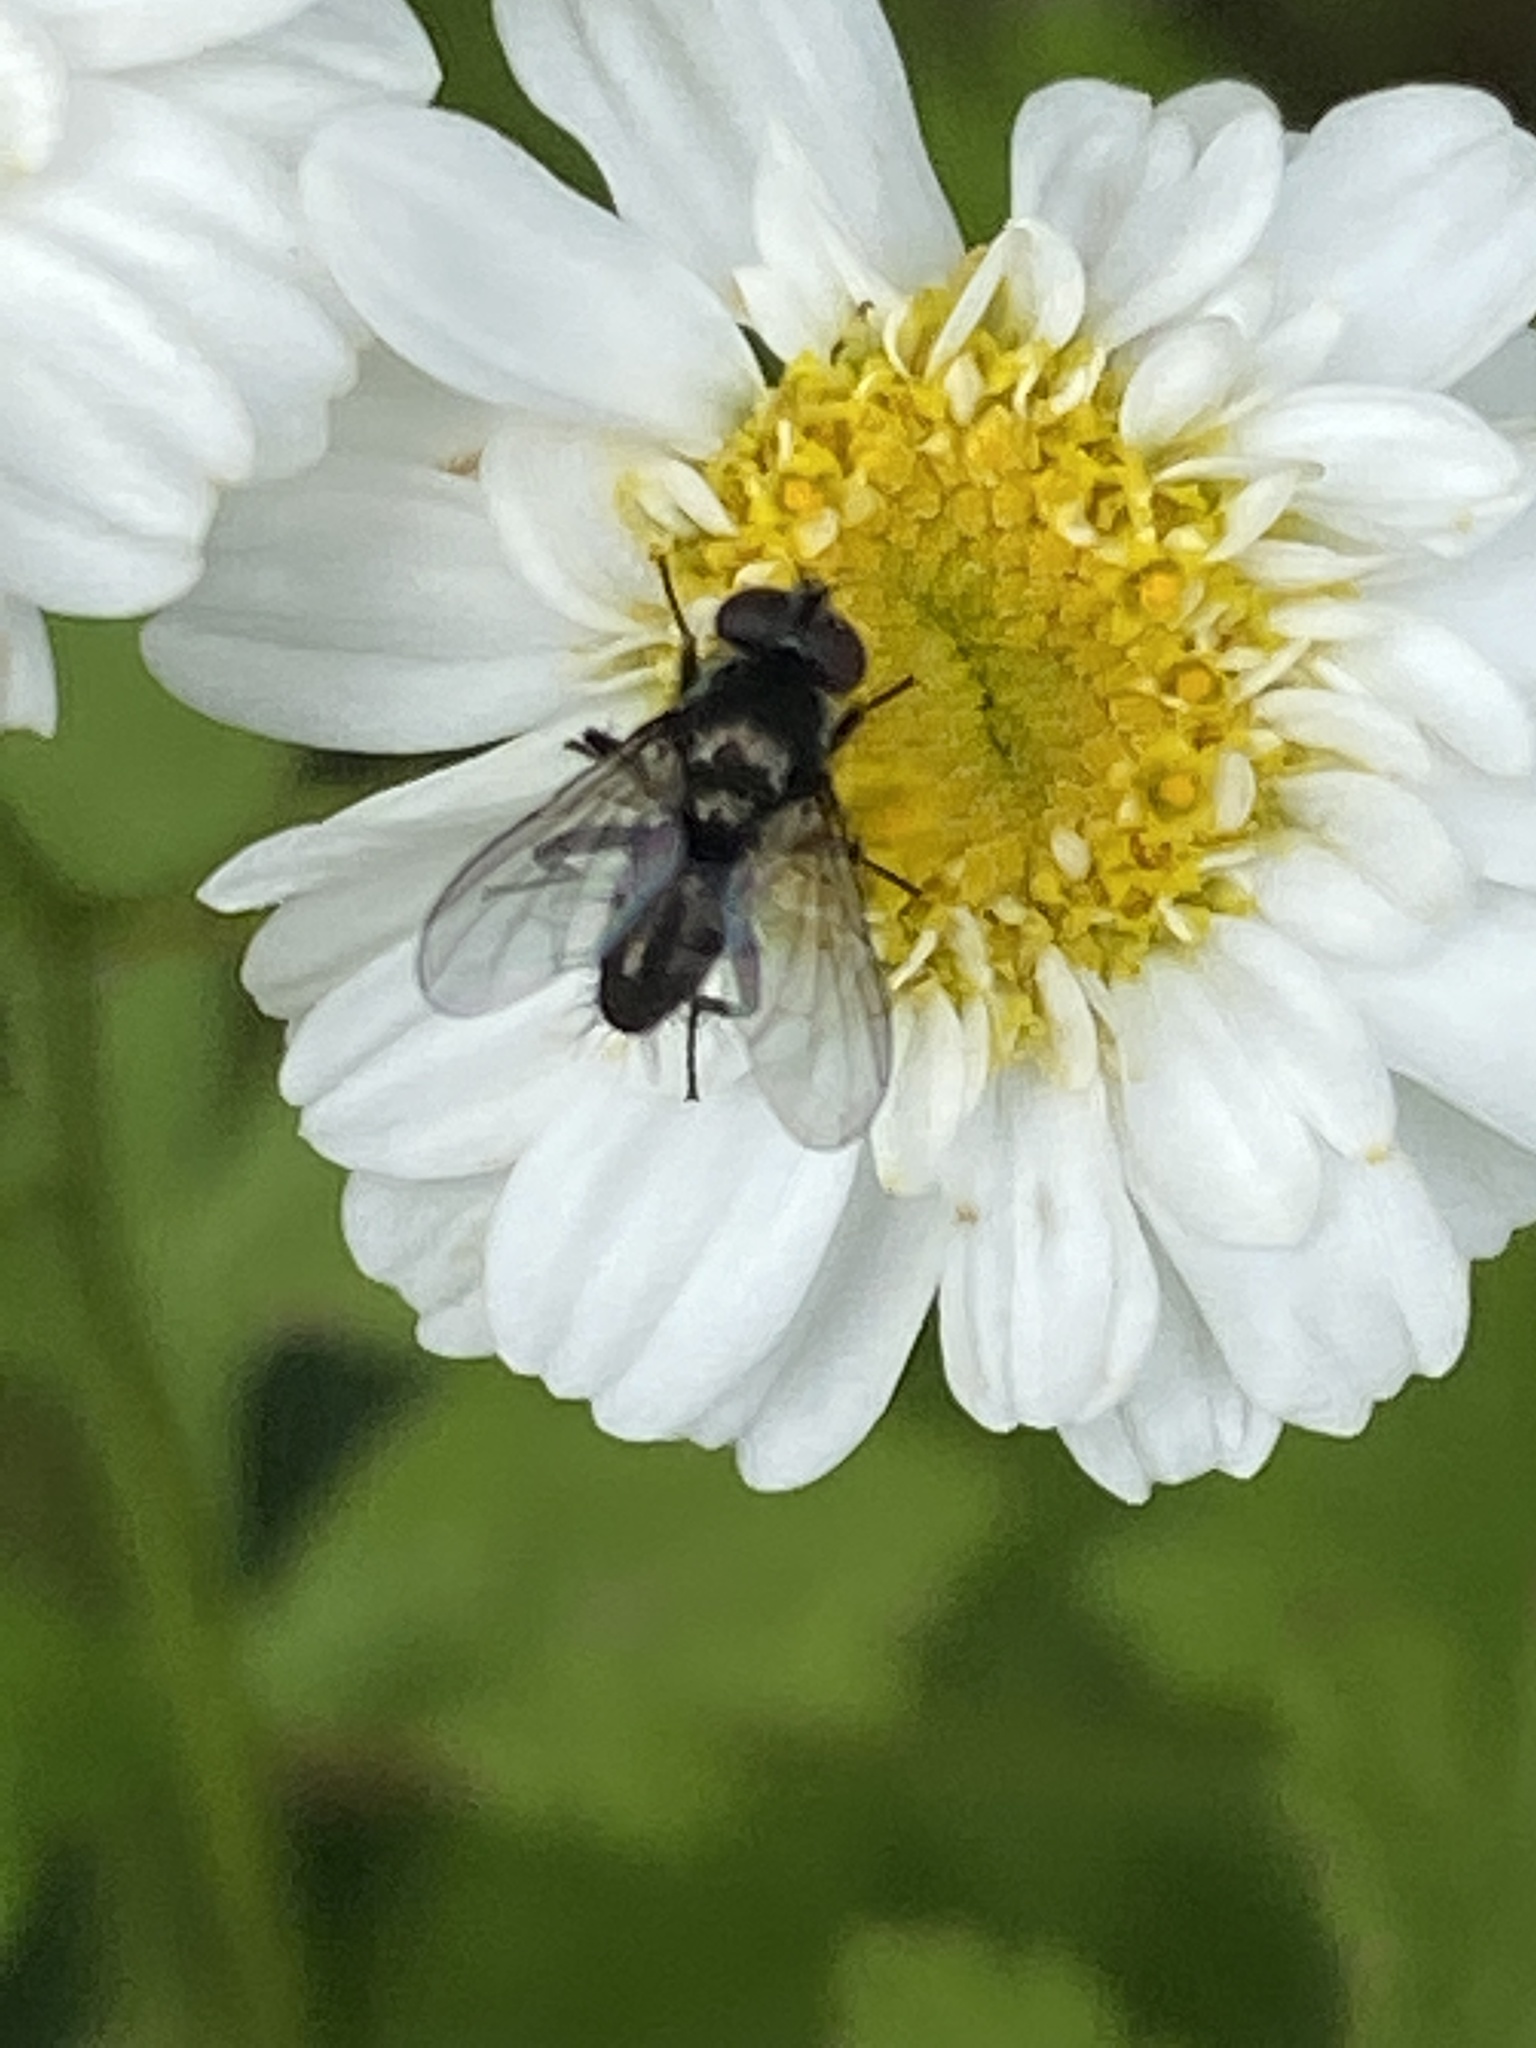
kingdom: Animalia
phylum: Arthropoda
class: Insecta
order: Diptera
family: Calliphoridae
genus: Rhinophora
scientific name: Rhinophora lepida
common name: Pouting woodlouse-fly
